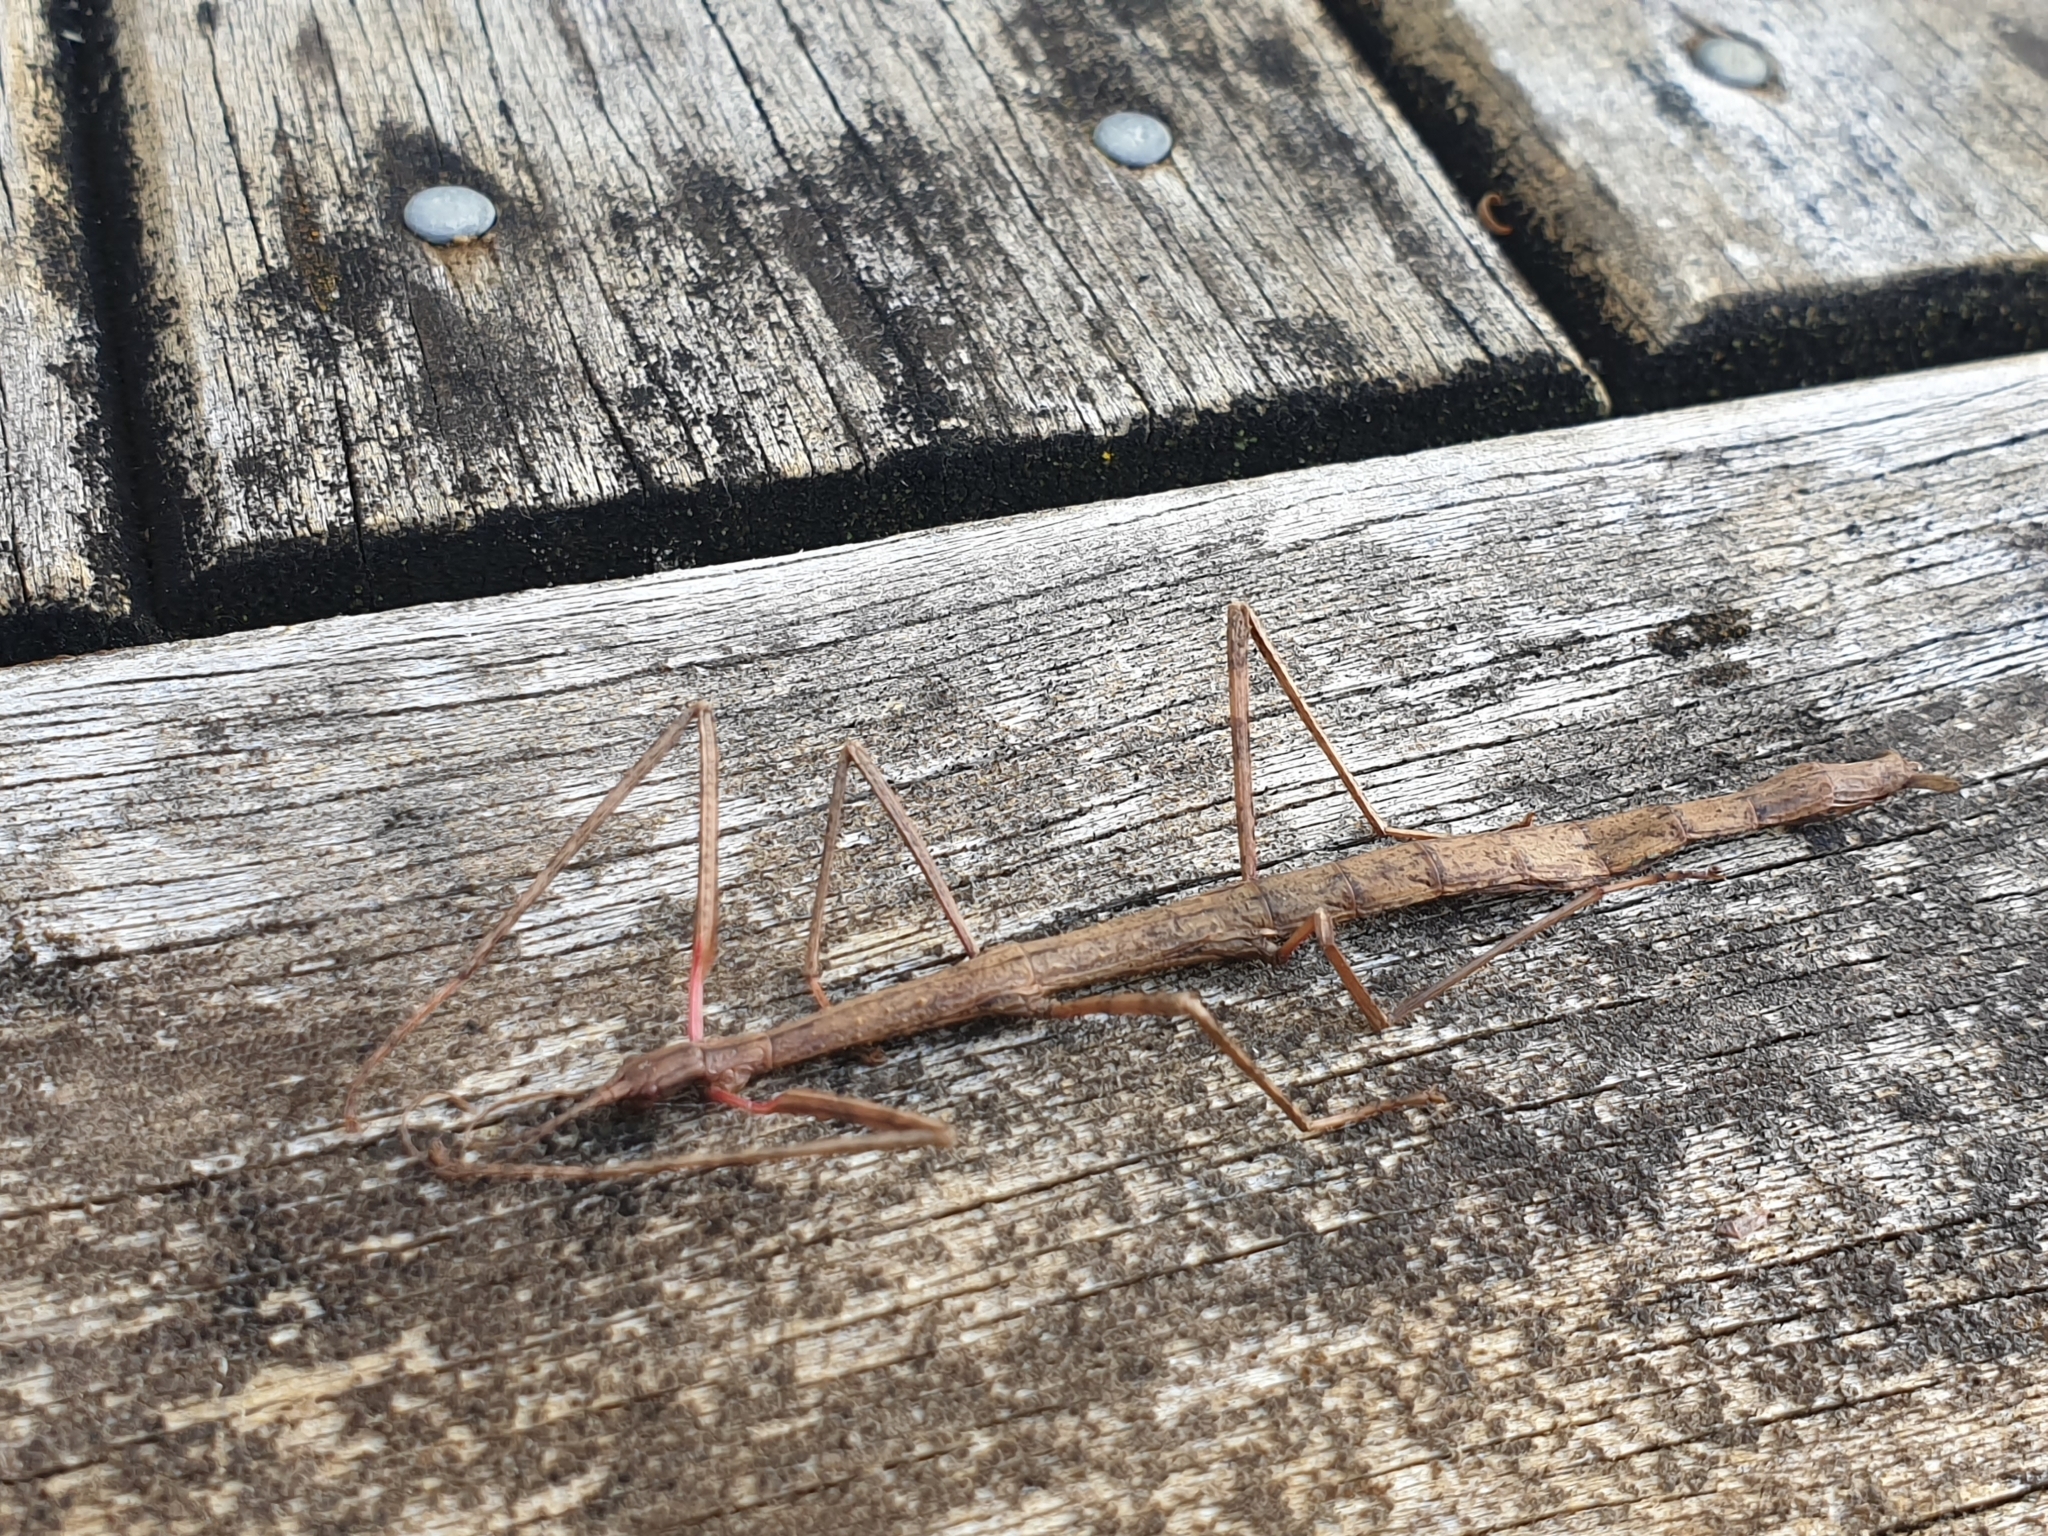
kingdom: Animalia
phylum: Arthropoda
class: Insecta
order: Phasmida
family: Phasmatidae
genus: Clitarchus
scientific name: Clitarchus hookeri
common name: Smooth stick insect
